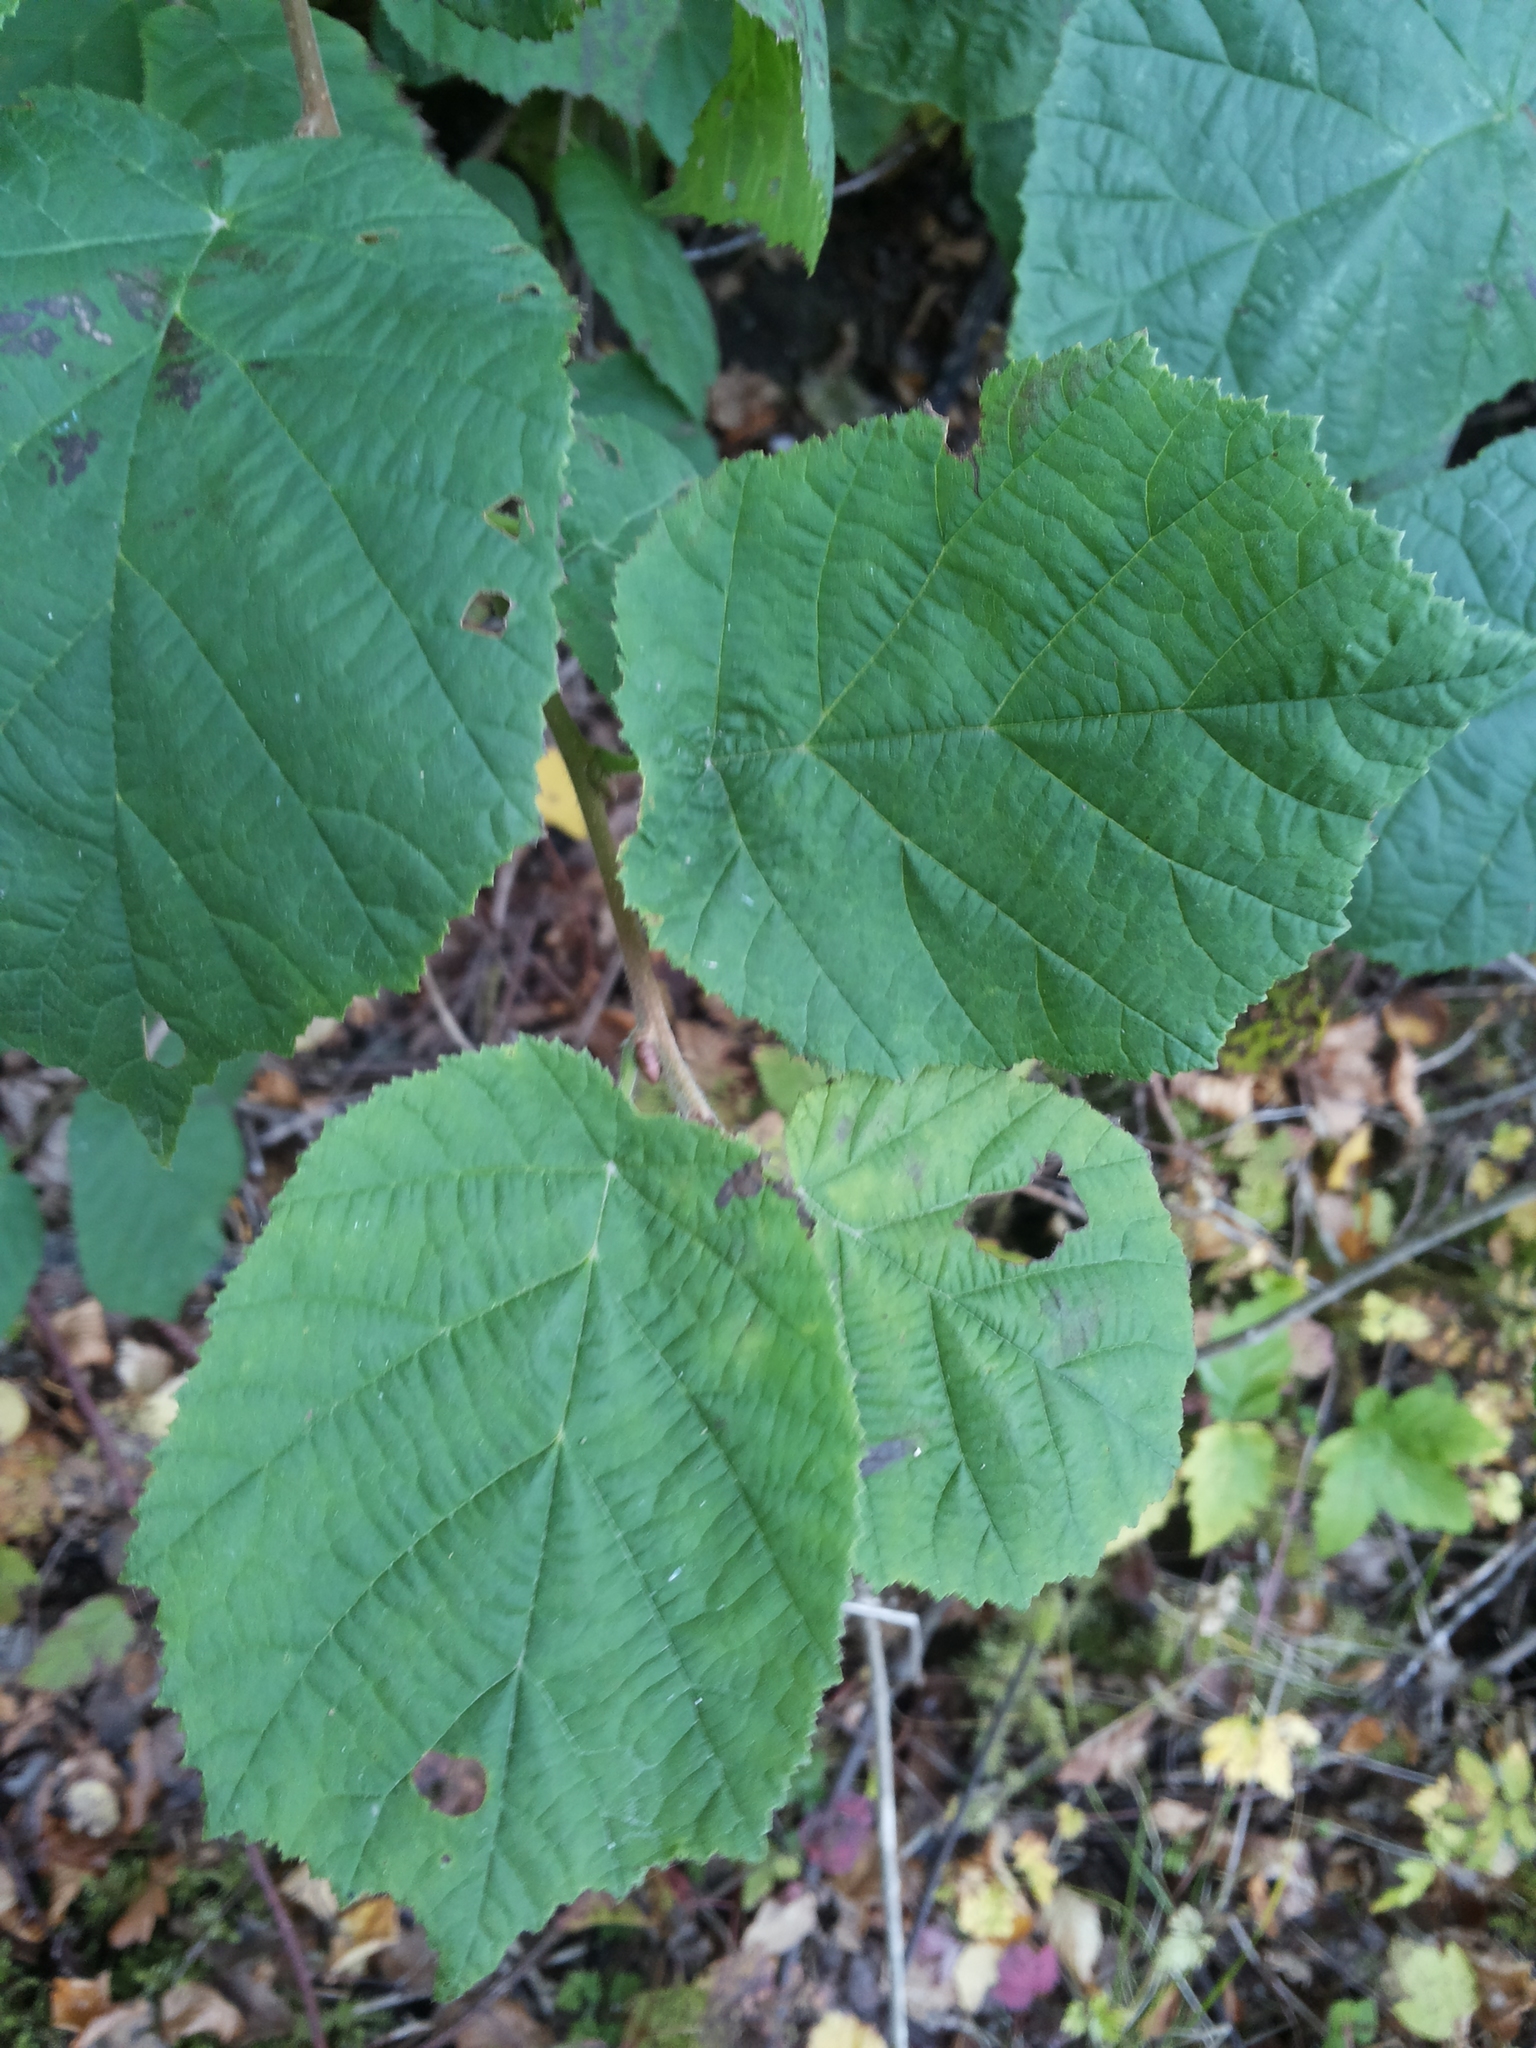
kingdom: Plantae
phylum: Tracheophyta
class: Magnoliopsida
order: Fagales
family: Betulaceae
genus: Corylus
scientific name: Corylus avellana
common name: European hazel
